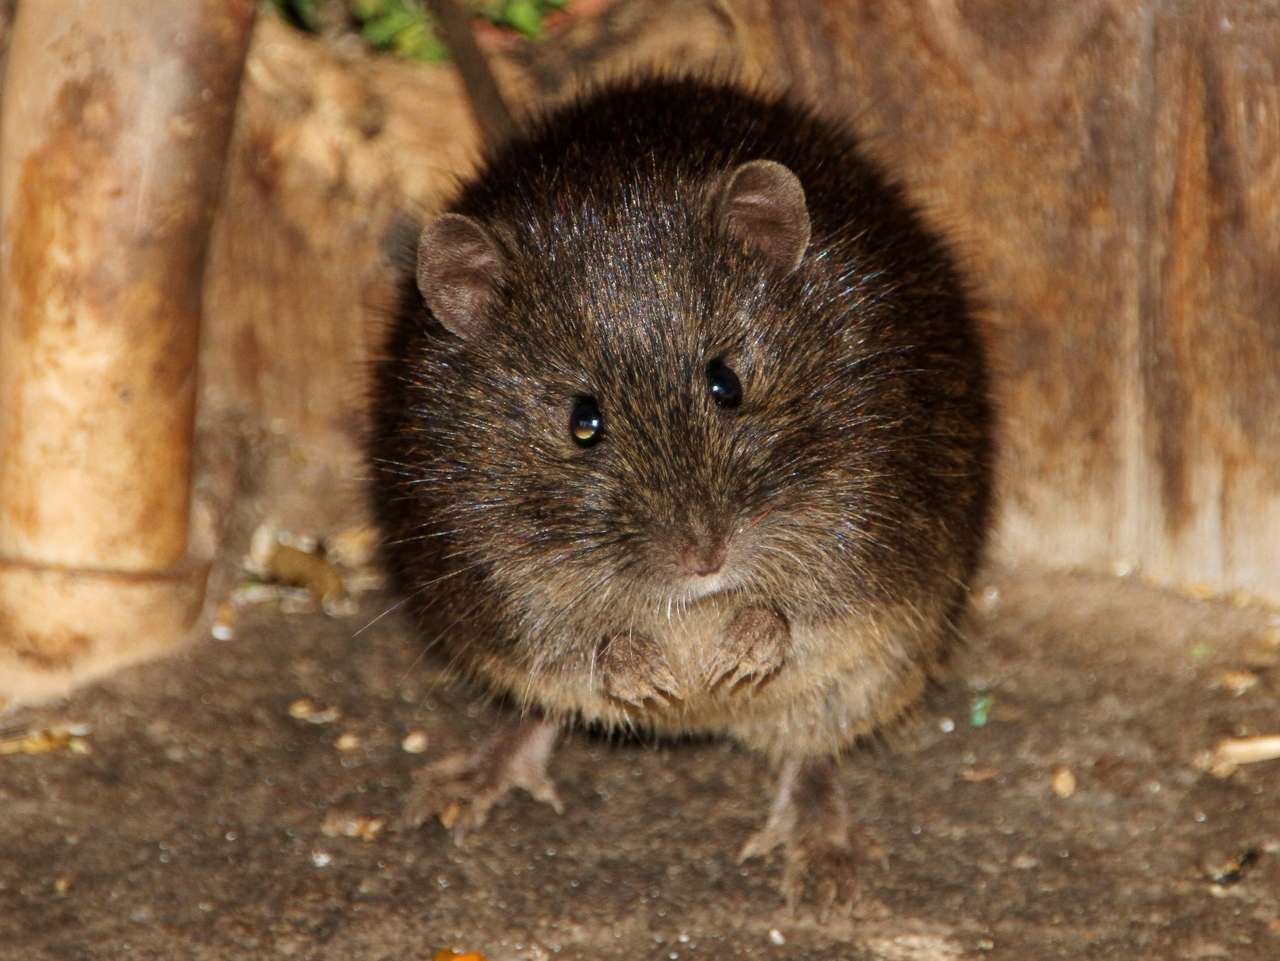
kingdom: Animalia
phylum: Chordata
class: Mammalia
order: Rodentia
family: Muridae
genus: Rattus
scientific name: Rattus lutreolus
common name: Australian swamp rat
